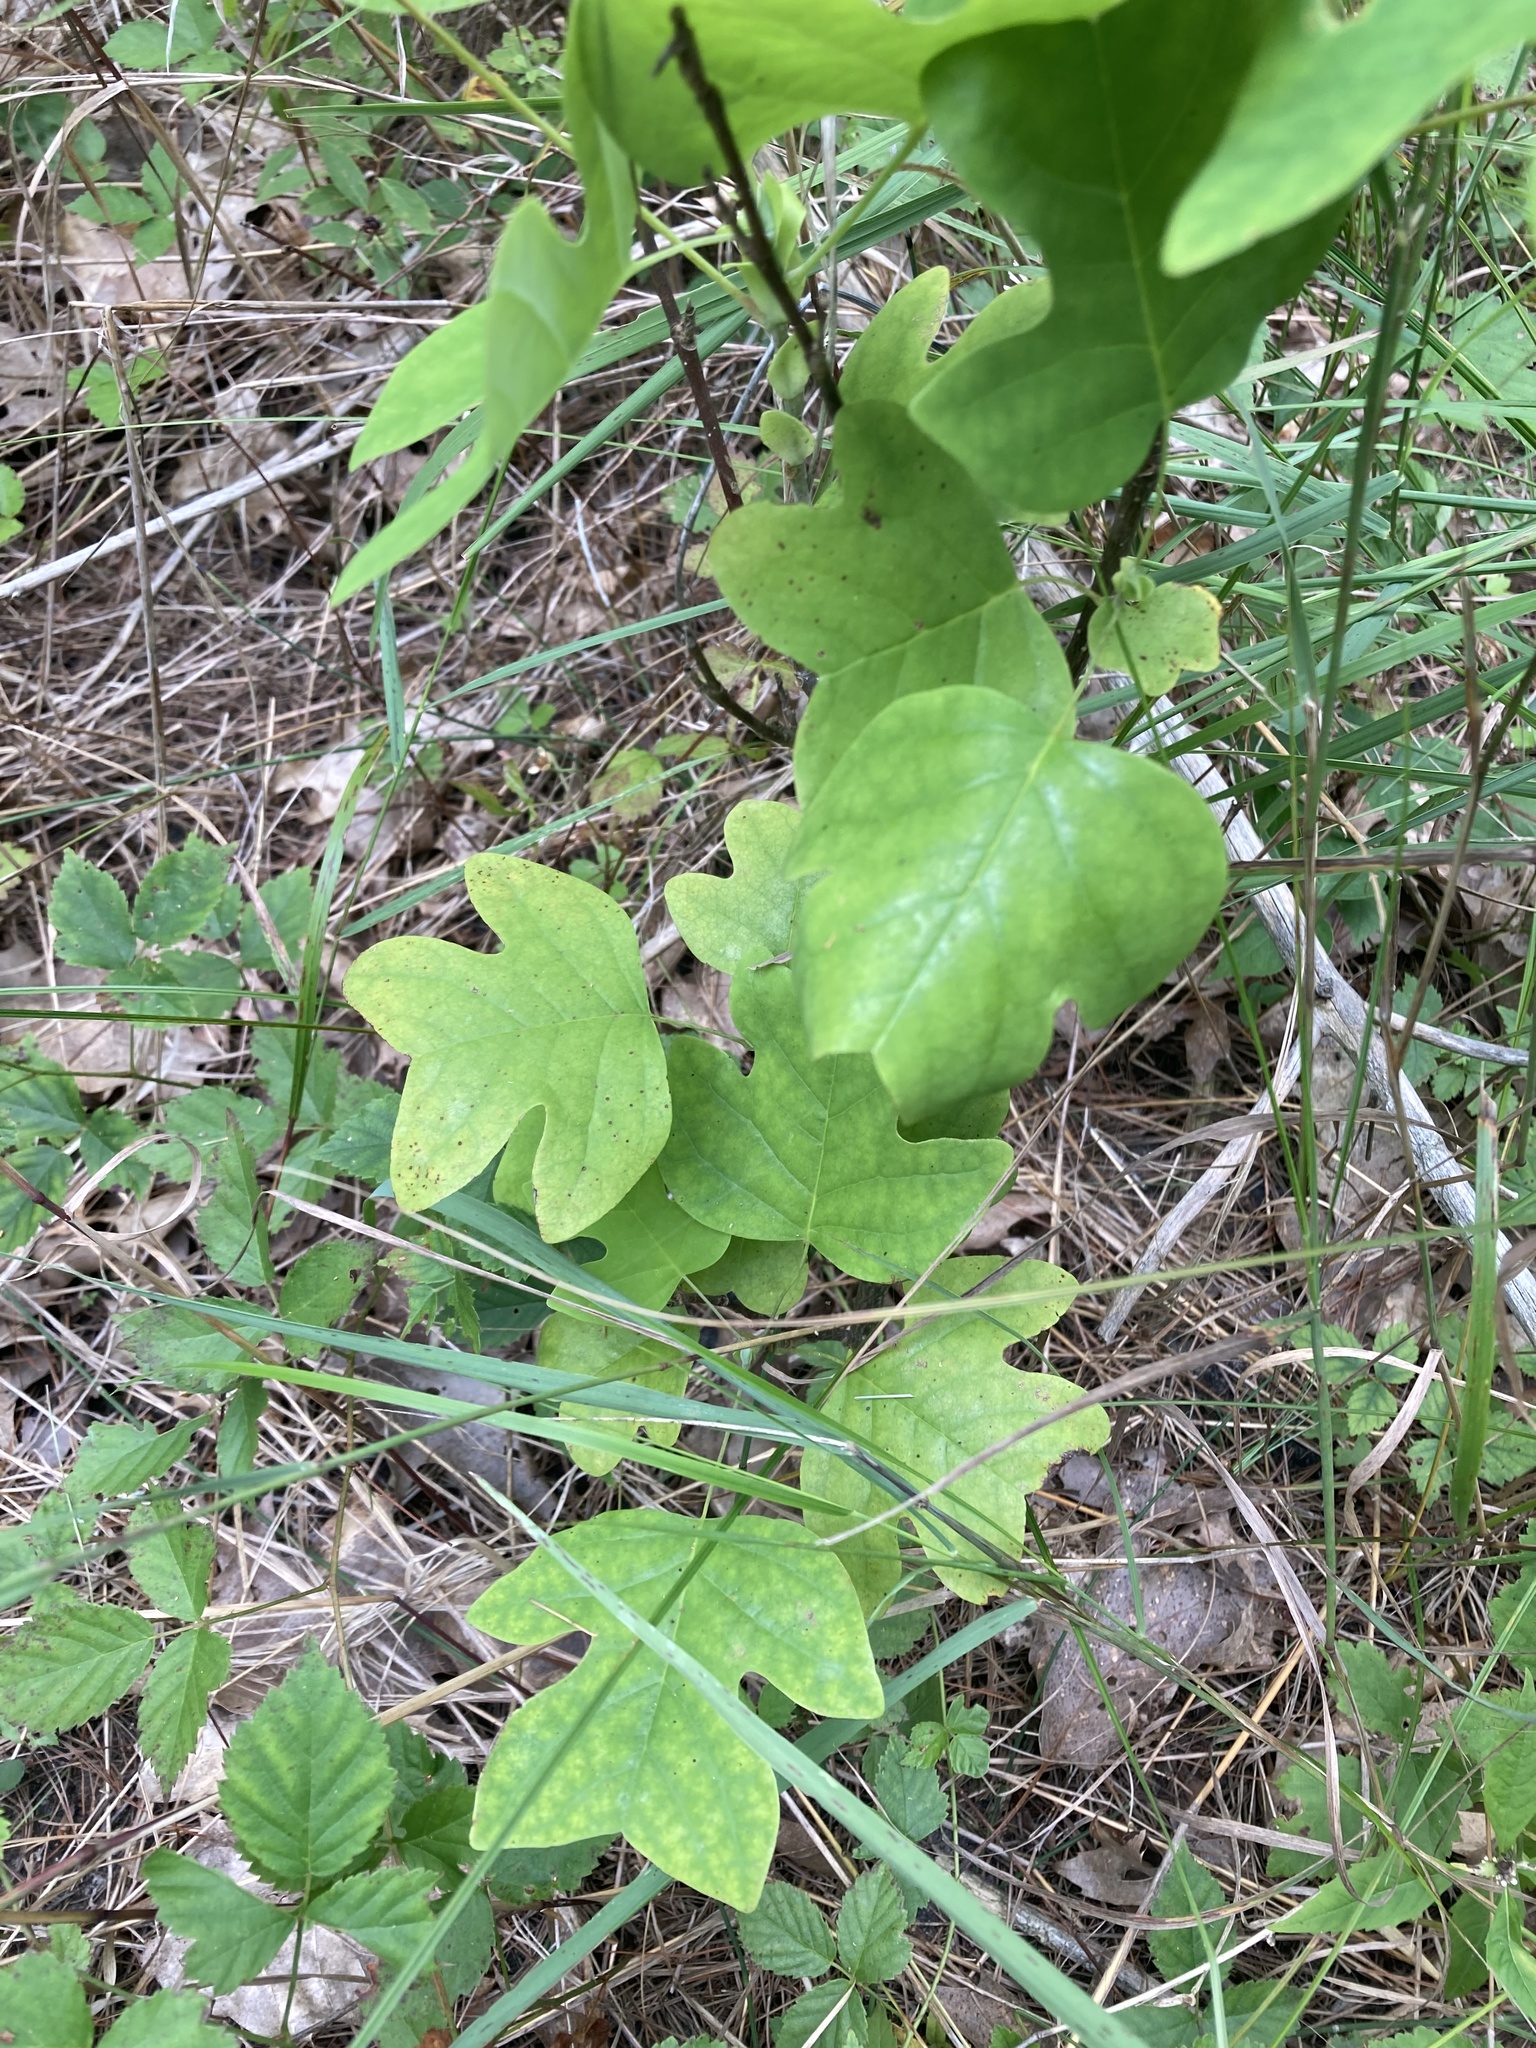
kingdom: Plantae
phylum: Tracheophyta
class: Magnoliopsida
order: Magnoliales
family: Magnoliaceae
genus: Liriodendron
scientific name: Liriodendron tulipifera
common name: Tulip tree
